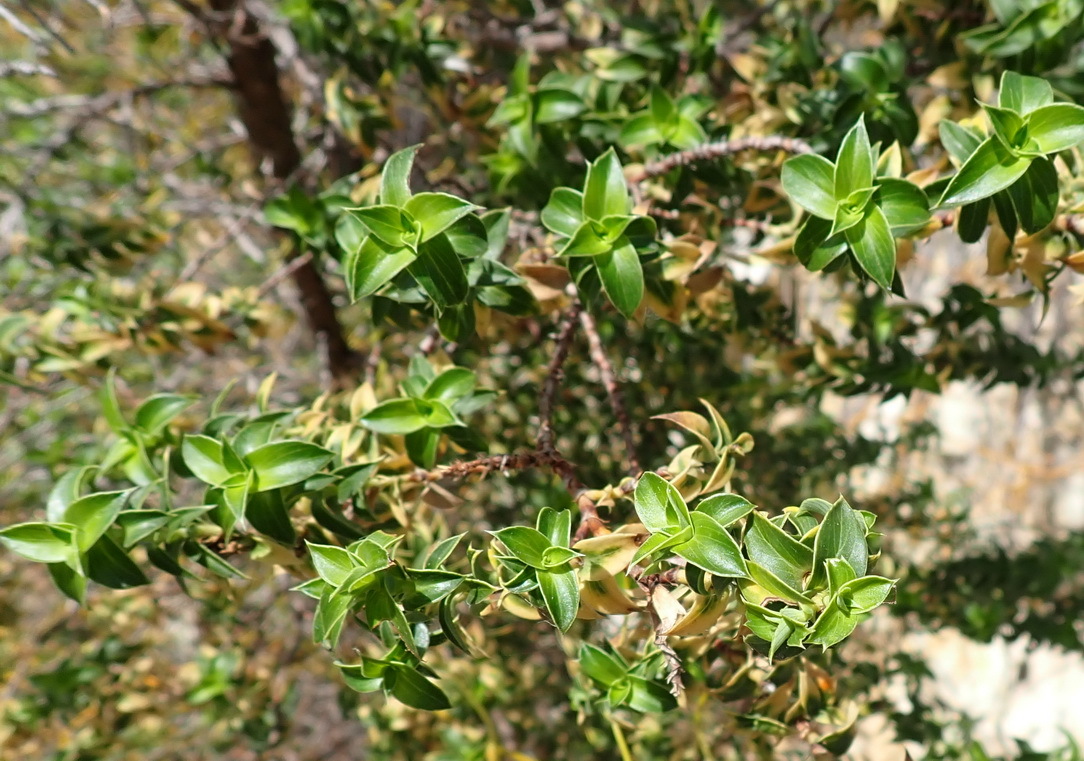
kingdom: Plantae
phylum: Tracheophyta
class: Magnoliopsida
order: Rosales
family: Rosaceae
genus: Cliffortia
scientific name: Cliffortia ilicifolia
